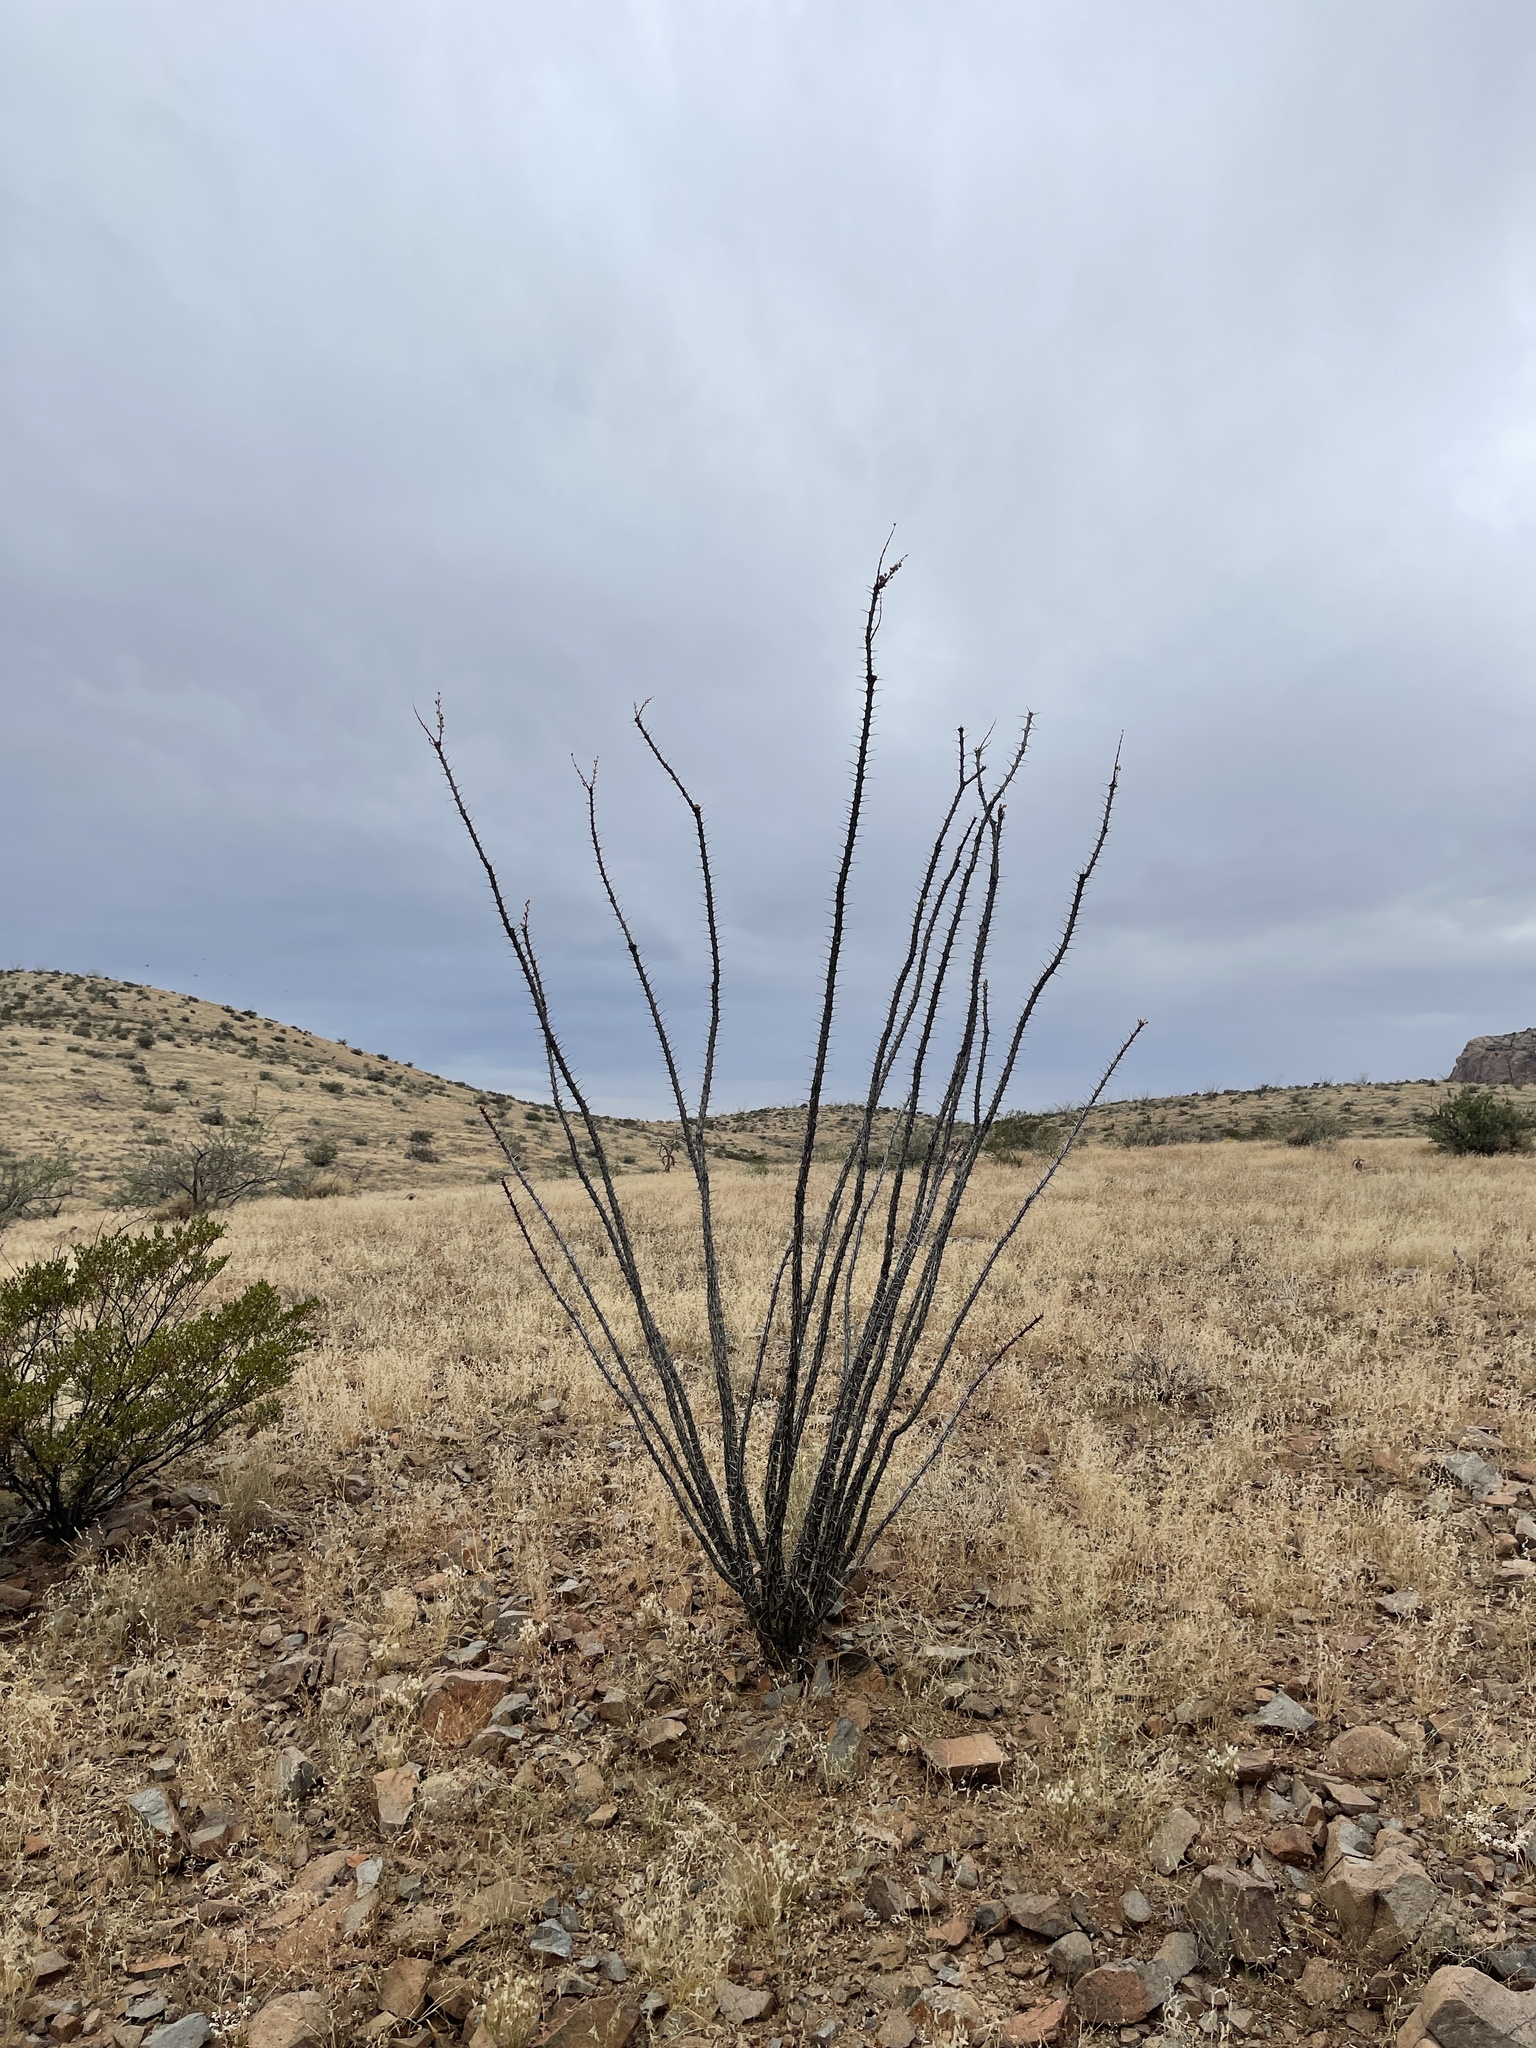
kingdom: Plantae
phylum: Tracheophyta
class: Magnoliopsida
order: Ericales
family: Fouquieriaceae
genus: Fouquieria
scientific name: Fouquieria splendens
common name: Vine-cactus
